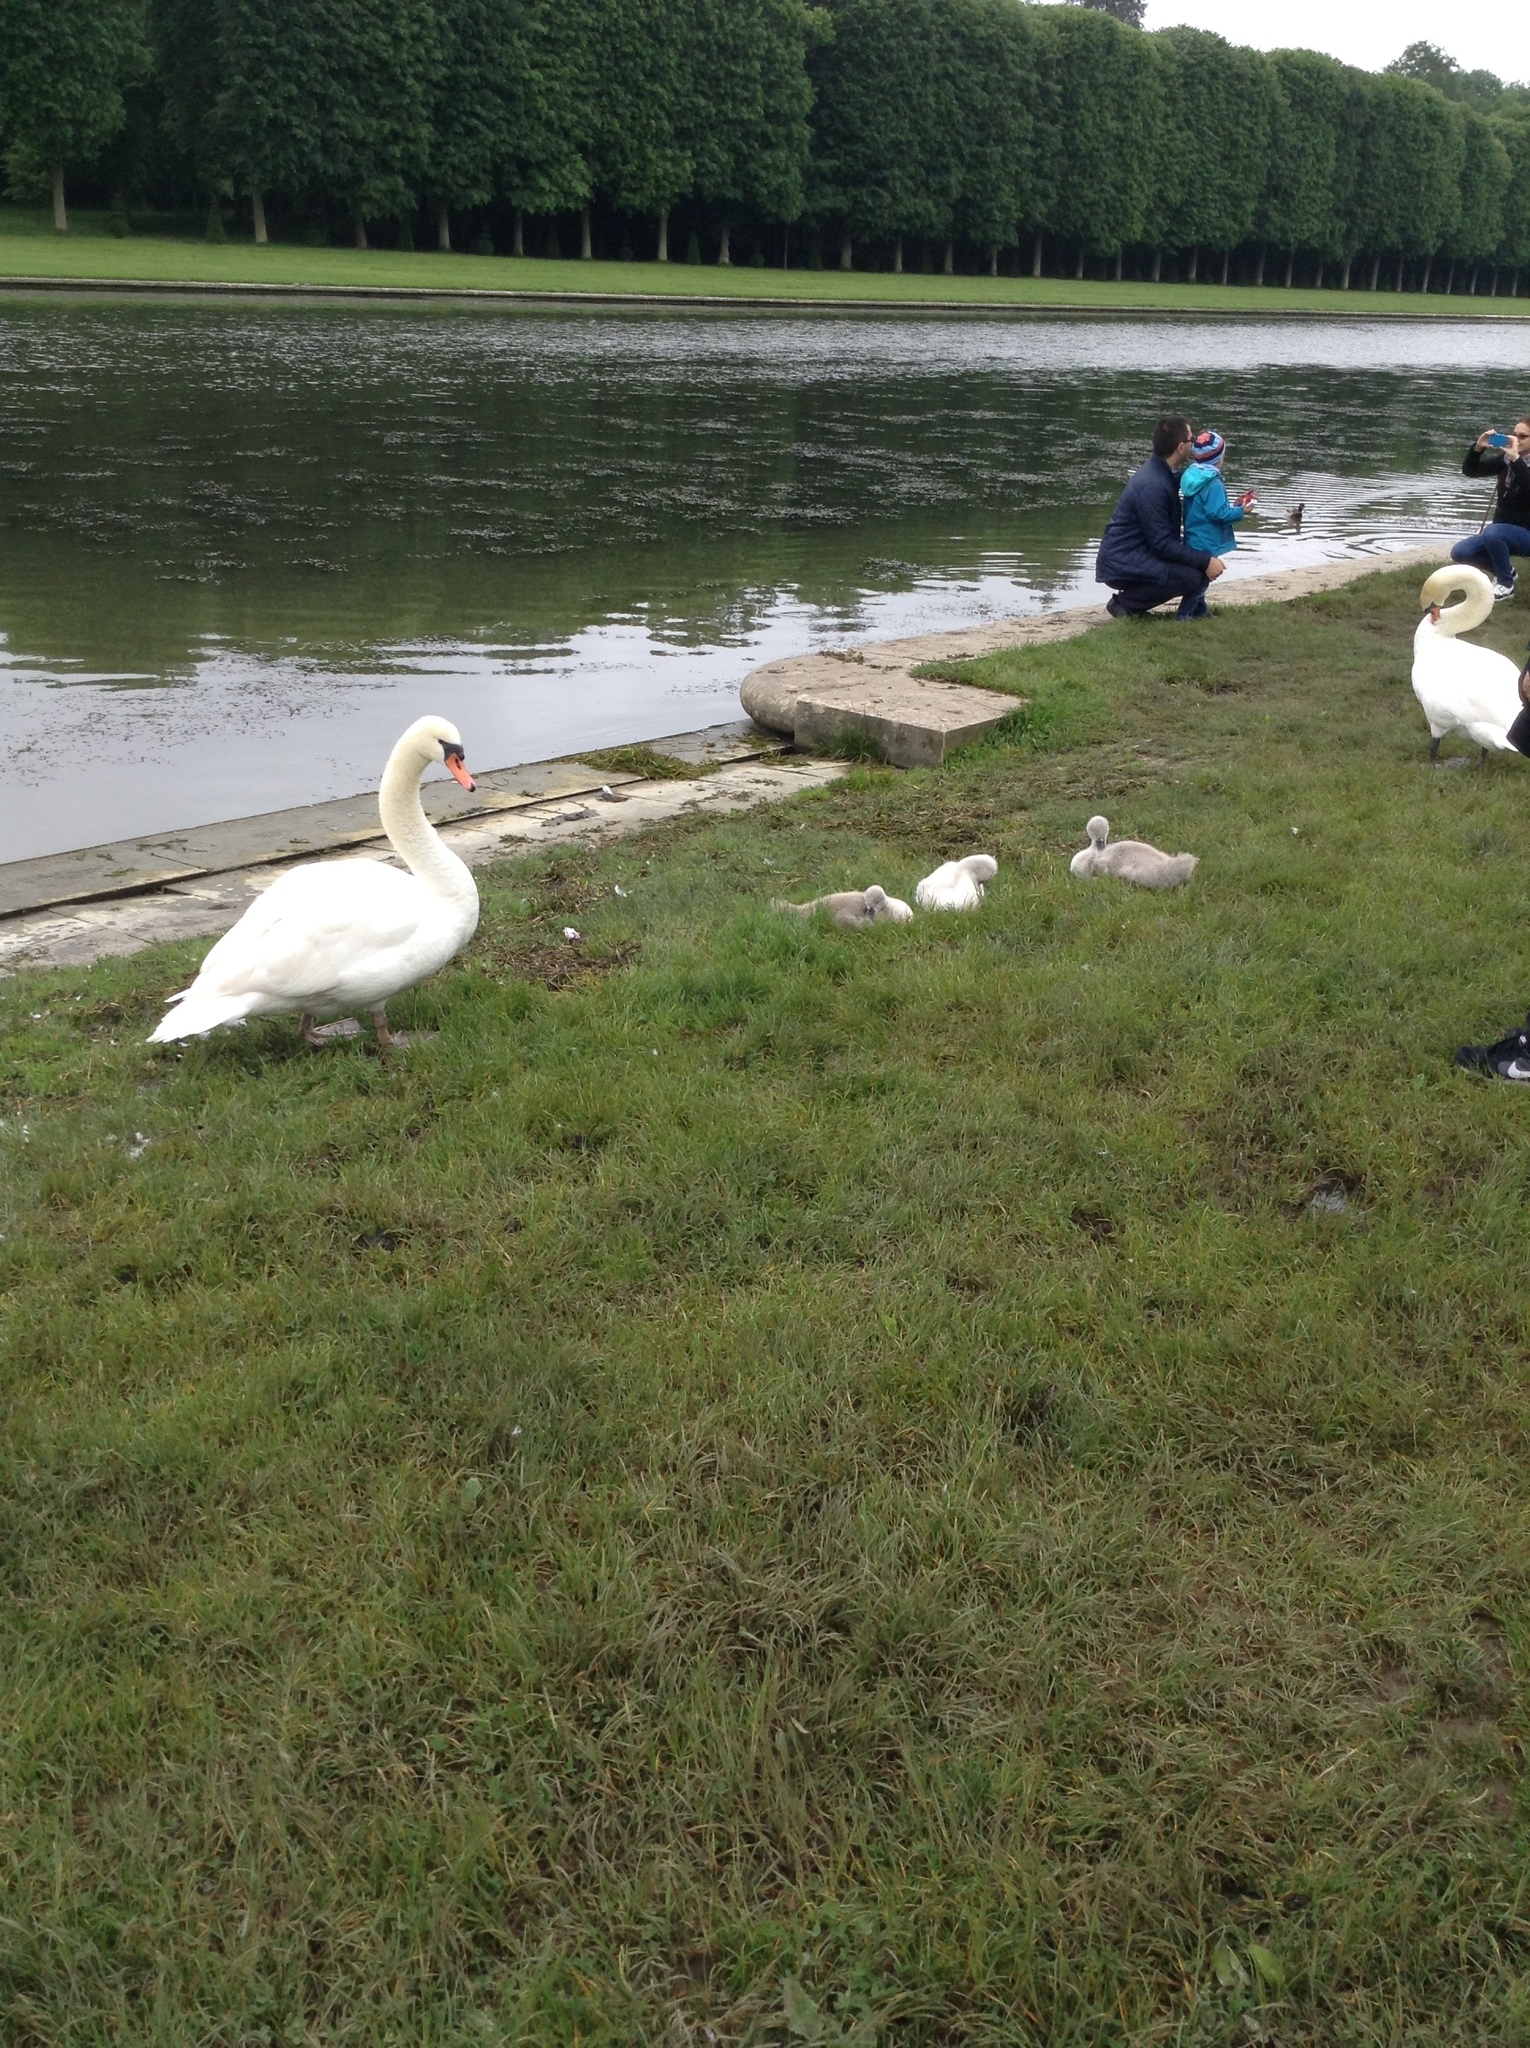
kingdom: Animalia
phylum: Chordata
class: Aves
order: Anseriformes
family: Anatidae
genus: Cygnus
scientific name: Cygnus olor
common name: Mute swan
